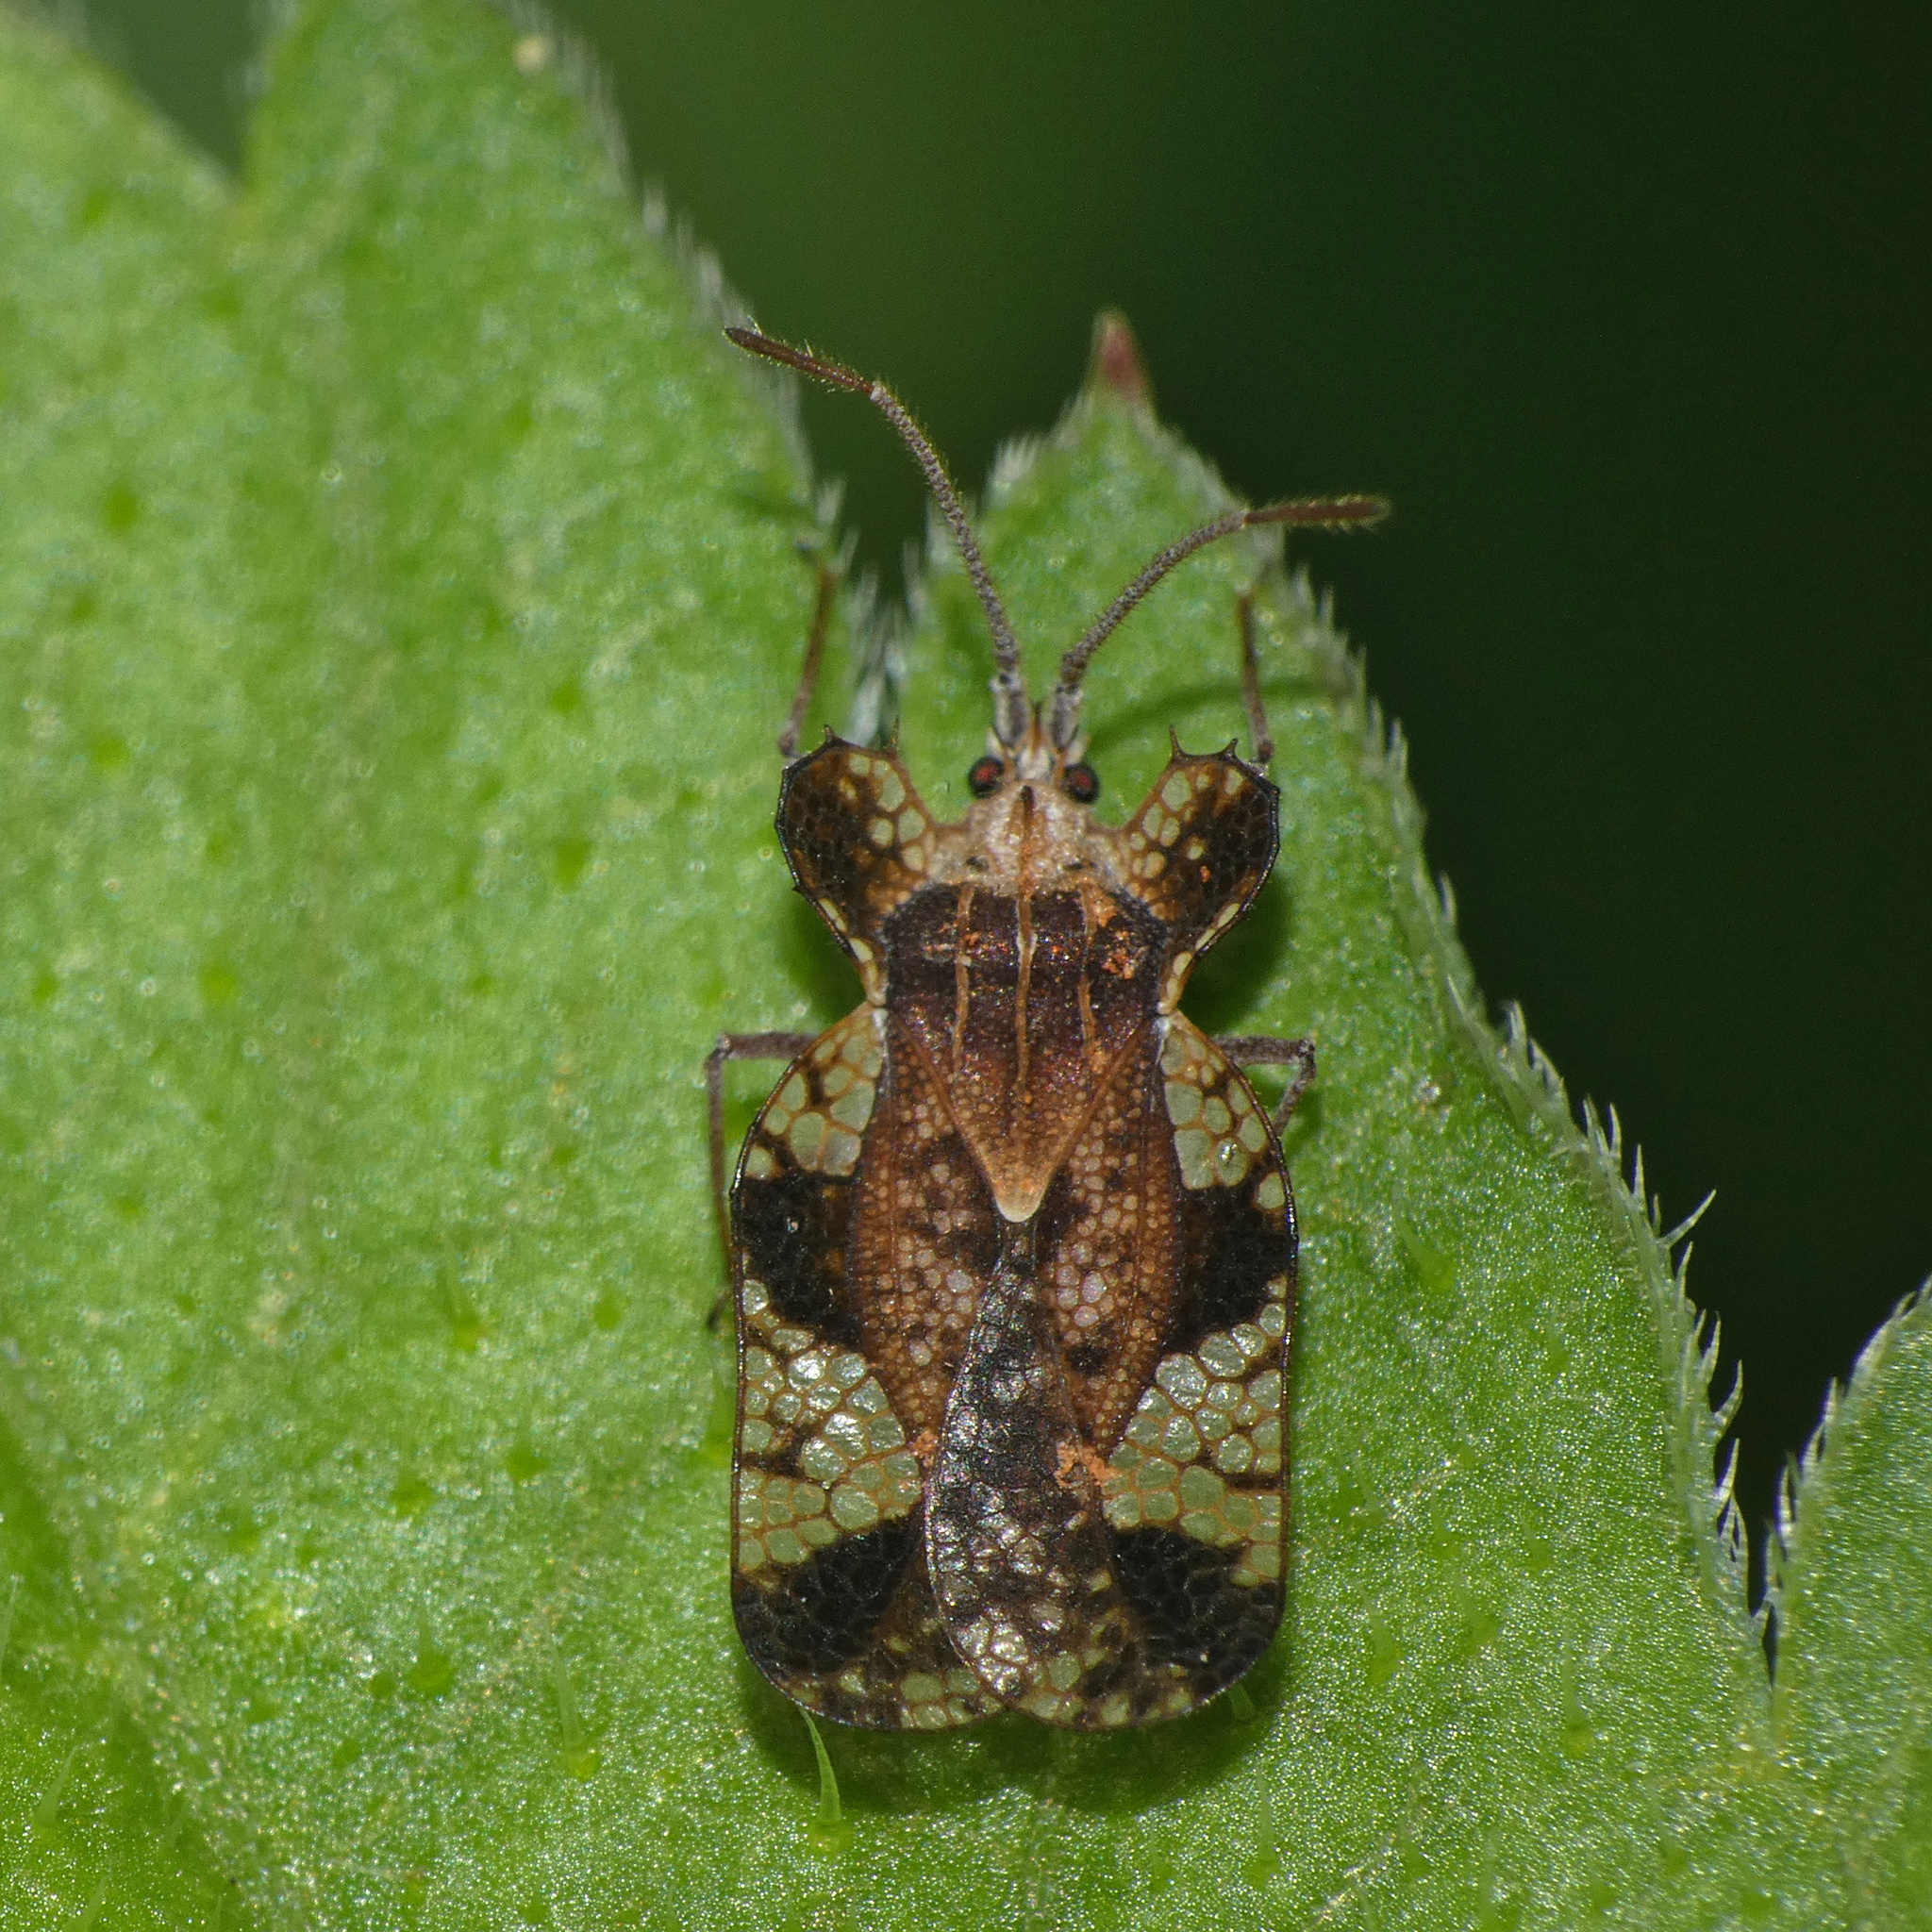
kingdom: Animalia
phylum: Arthropoda
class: Insecta
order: Hemiptera
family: Tingidae
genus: Sinuessa
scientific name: Sinuessa subinermis
